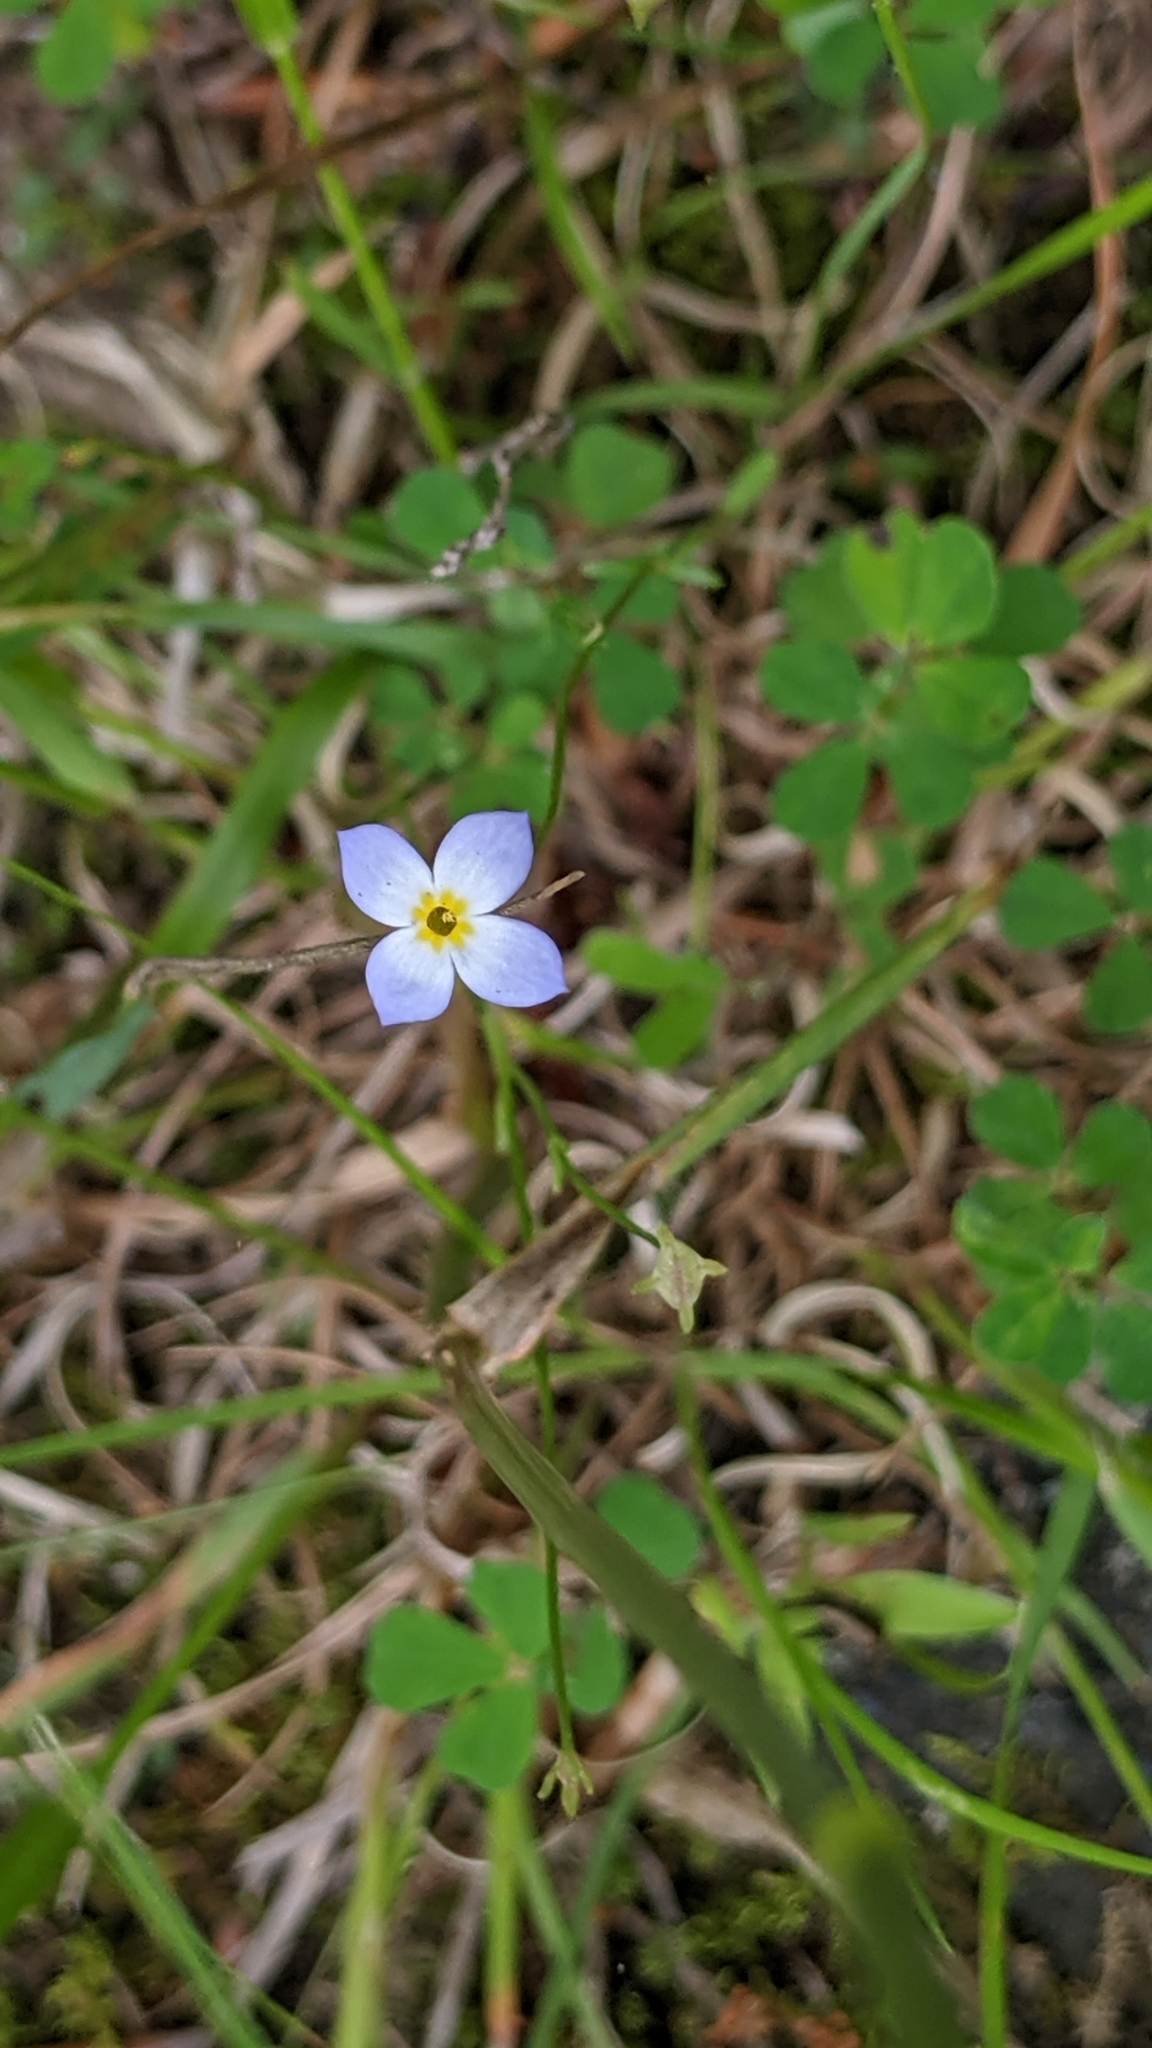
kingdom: Plantae
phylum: Tracheophyta
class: Magnoliopsida
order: Gentianales
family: Rubiaceae
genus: Houstonia
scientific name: Houstonia caerulea
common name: Bluets
